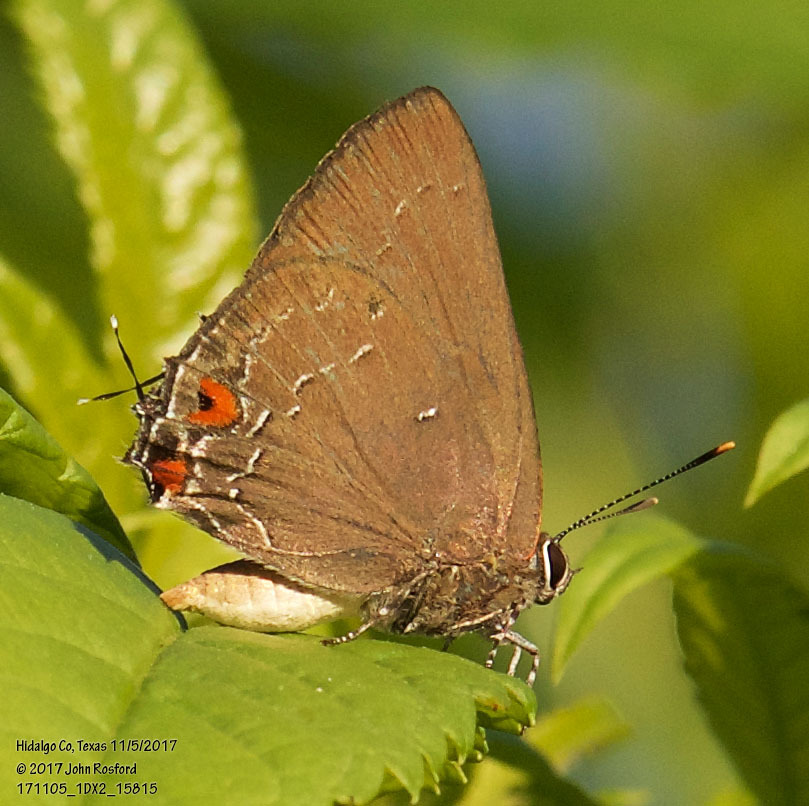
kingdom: Animalia
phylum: Arthropoda
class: Insecta
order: Lepidoptera
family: Lycaenidae
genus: Michaelus
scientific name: Michaelus ira
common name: Shadowed hairstreak
